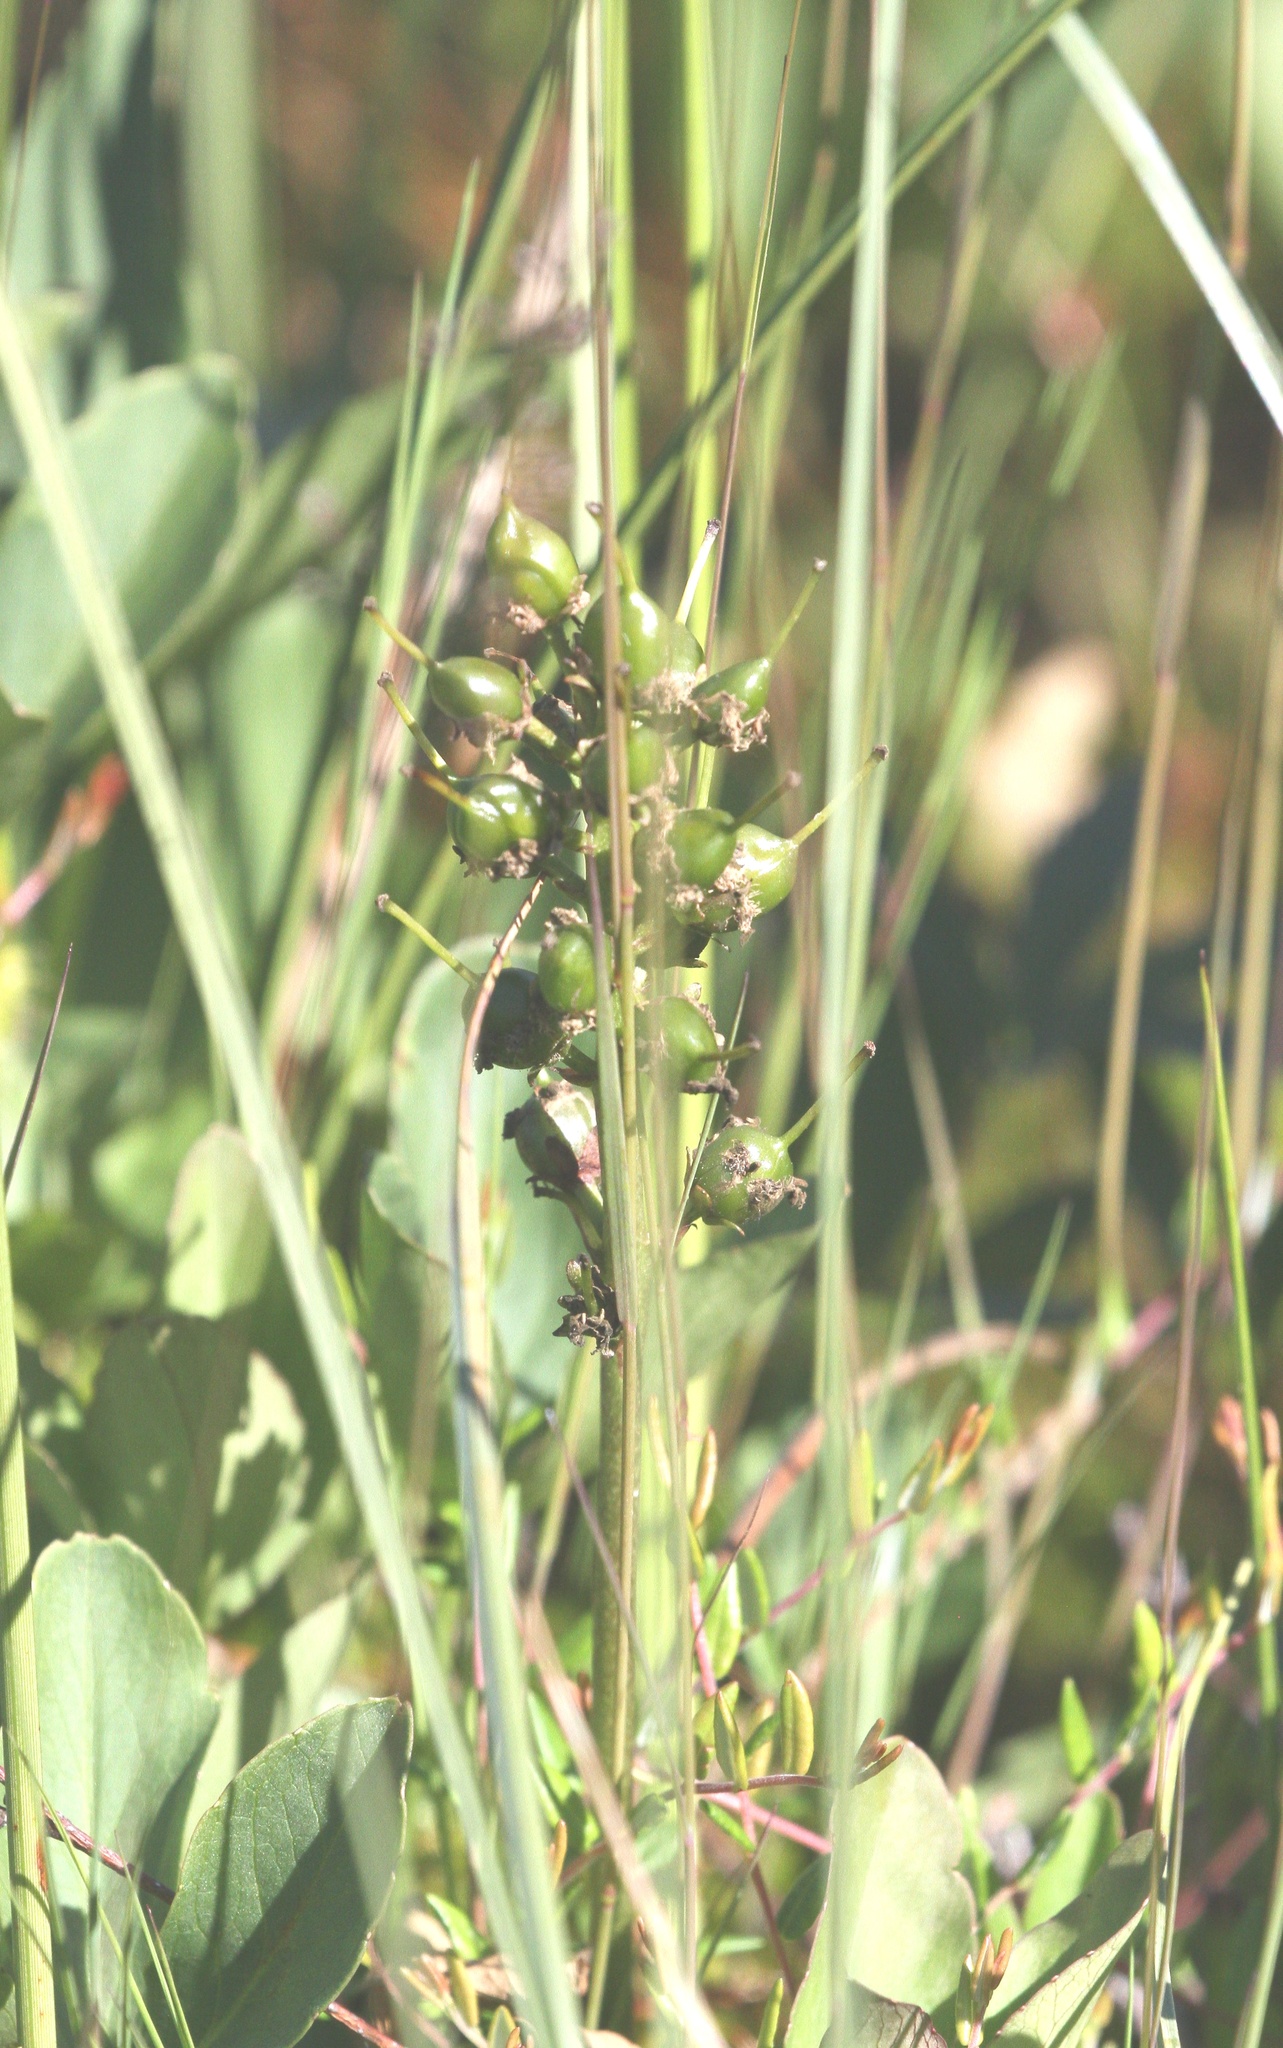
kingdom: Plantae
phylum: Tracheophyta
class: Magnoliopsida
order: Asterales
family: Menyanthaceae
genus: Menyanthes
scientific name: Menyanthes trifoliata
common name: Bogbean
